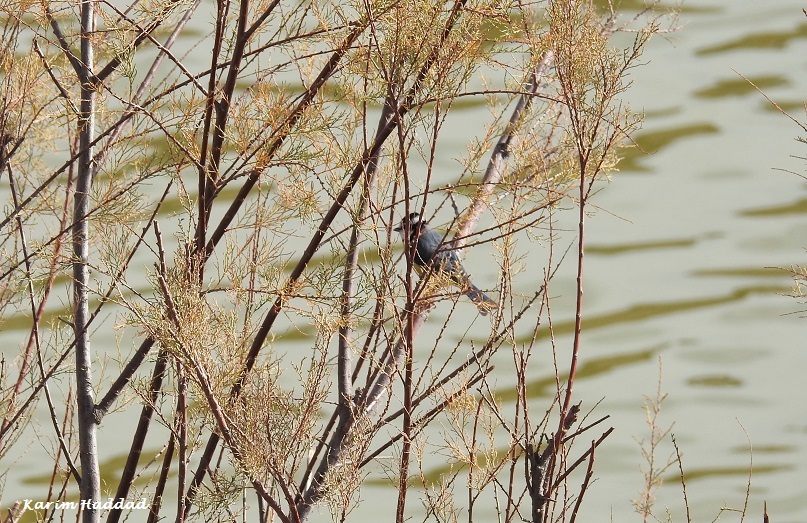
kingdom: Animalia
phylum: Chordata
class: Aves
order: Passeriformes
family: Paridae
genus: Cyanistes
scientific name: Cyanistes teneriffae
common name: African blue tit
